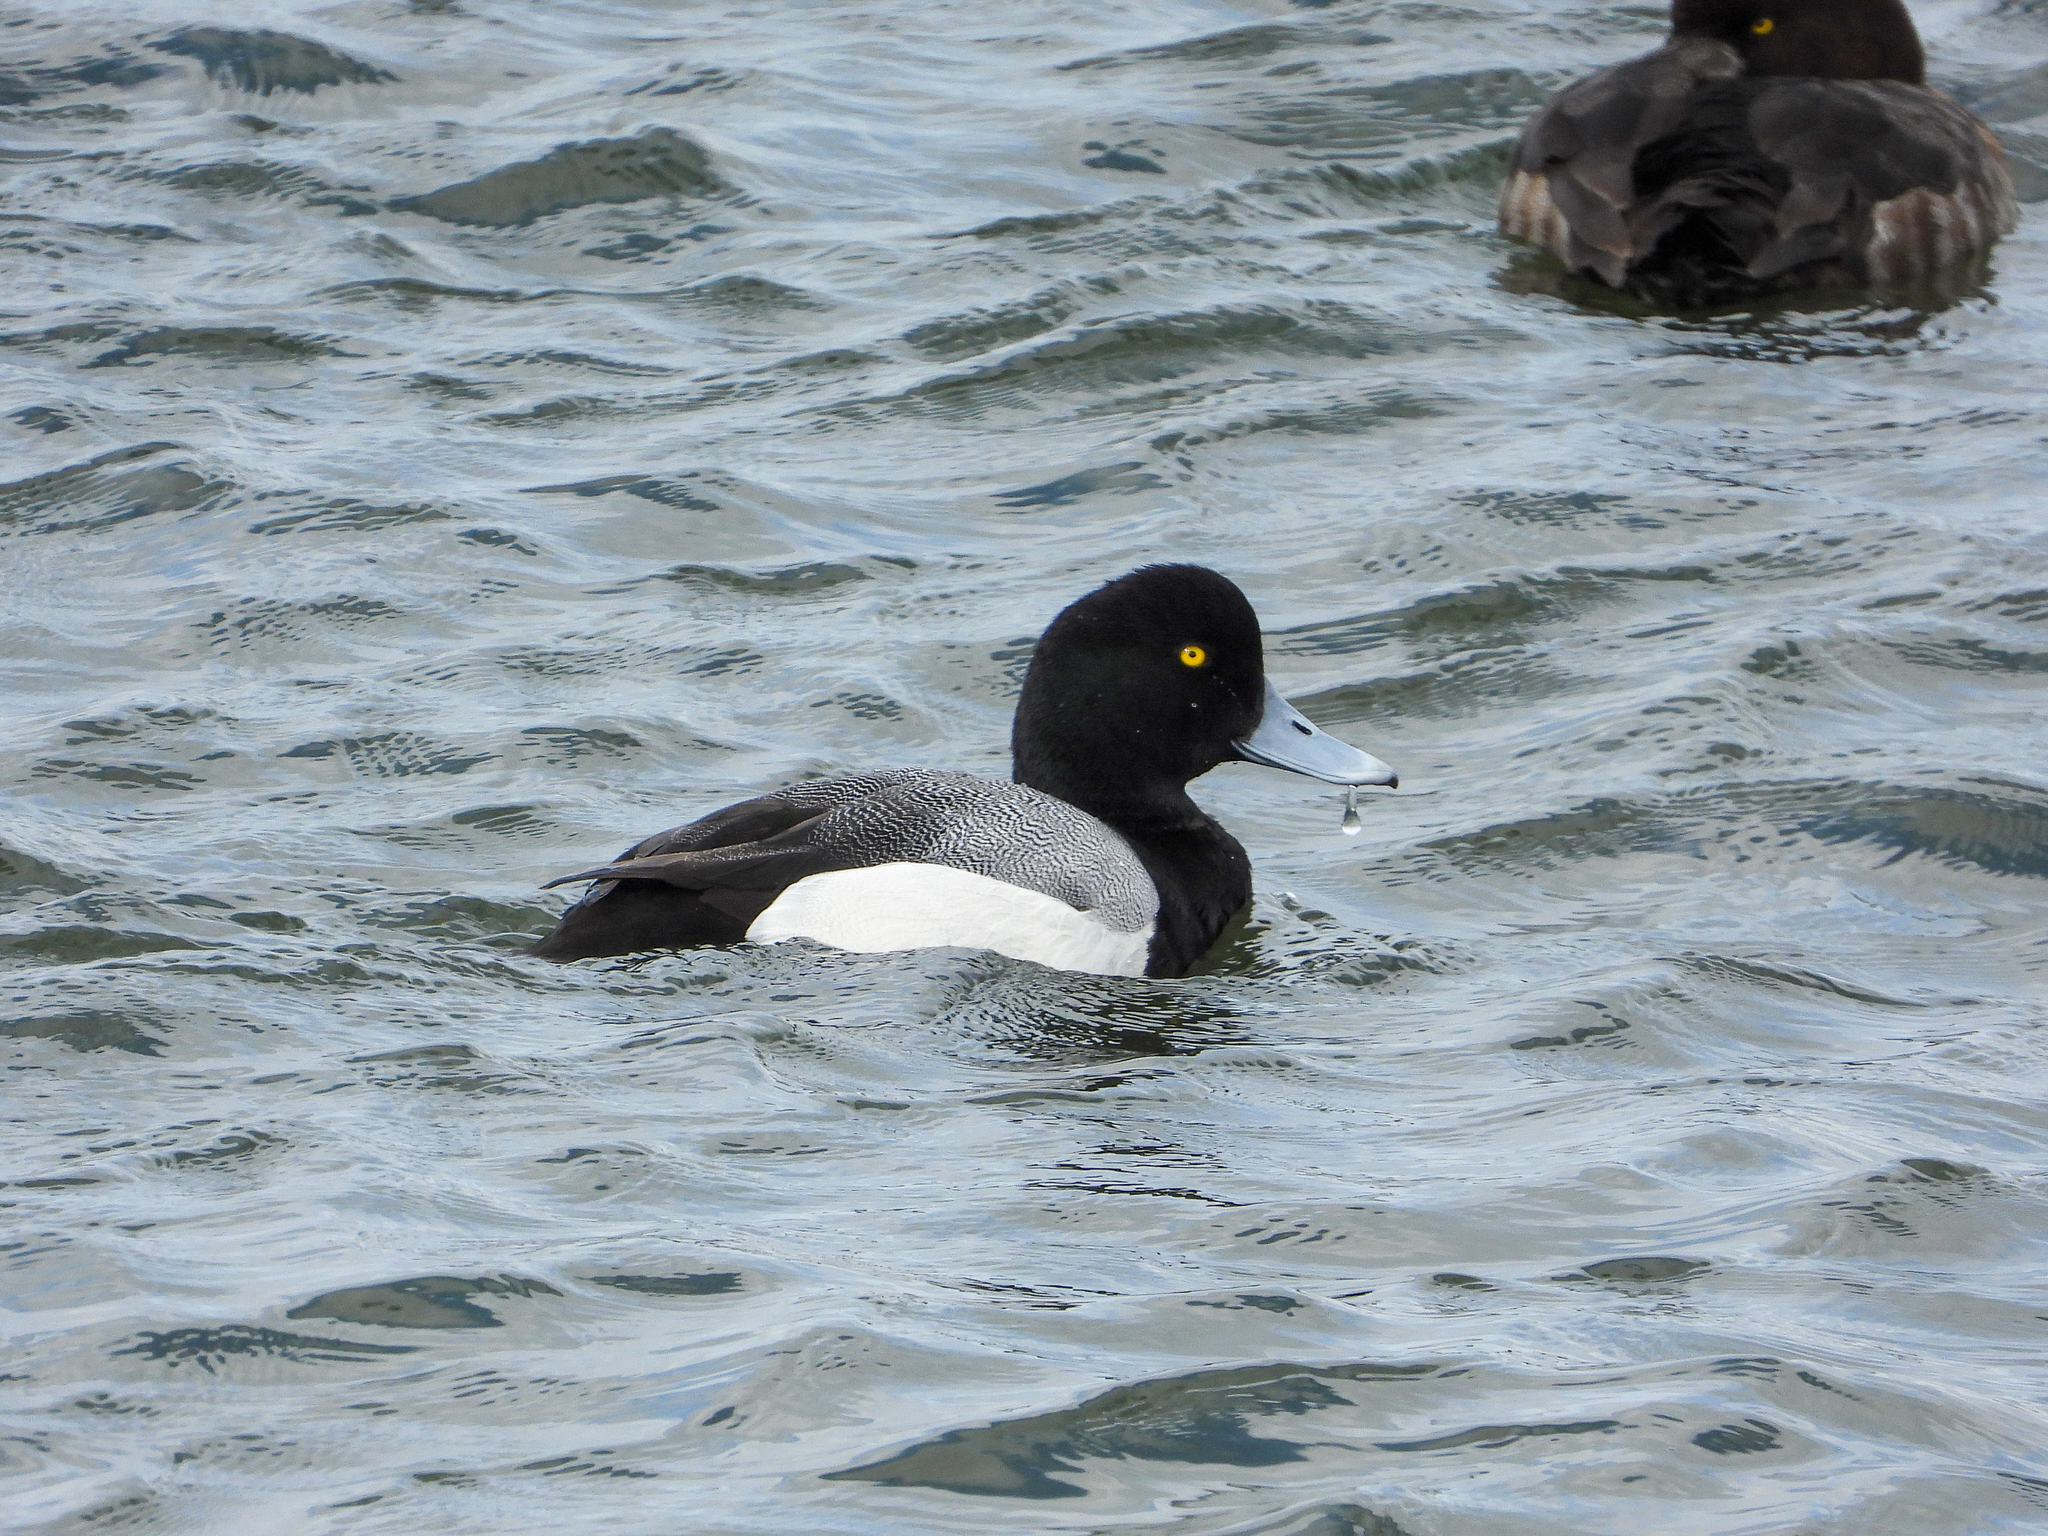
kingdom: Animalia
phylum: Chordata
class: Aves
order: Anseriformes
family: Anatidae
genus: Aythya
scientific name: Aythya marila
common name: Greater scaup
